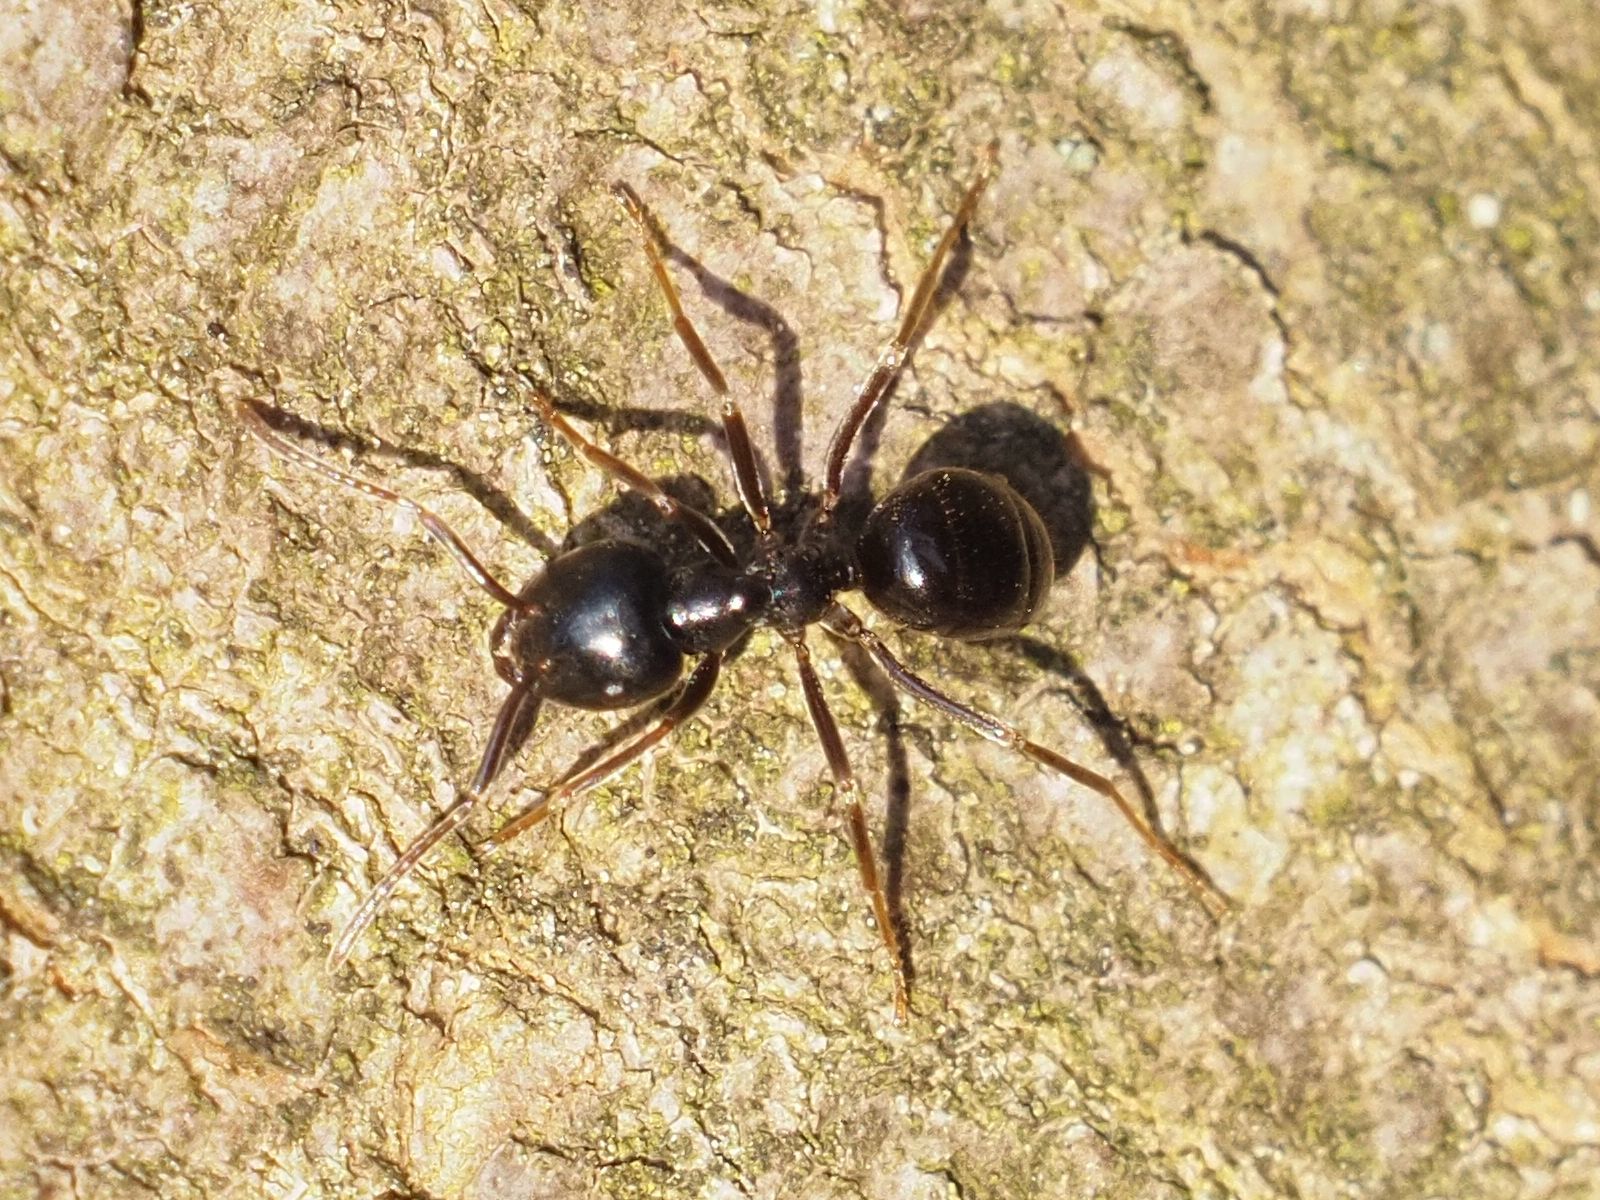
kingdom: Animalia
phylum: Arthropoda
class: Insecta
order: Hymenoptera
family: Formicidae
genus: Lasius
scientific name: Lasius fuliginosus
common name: Jet ant
